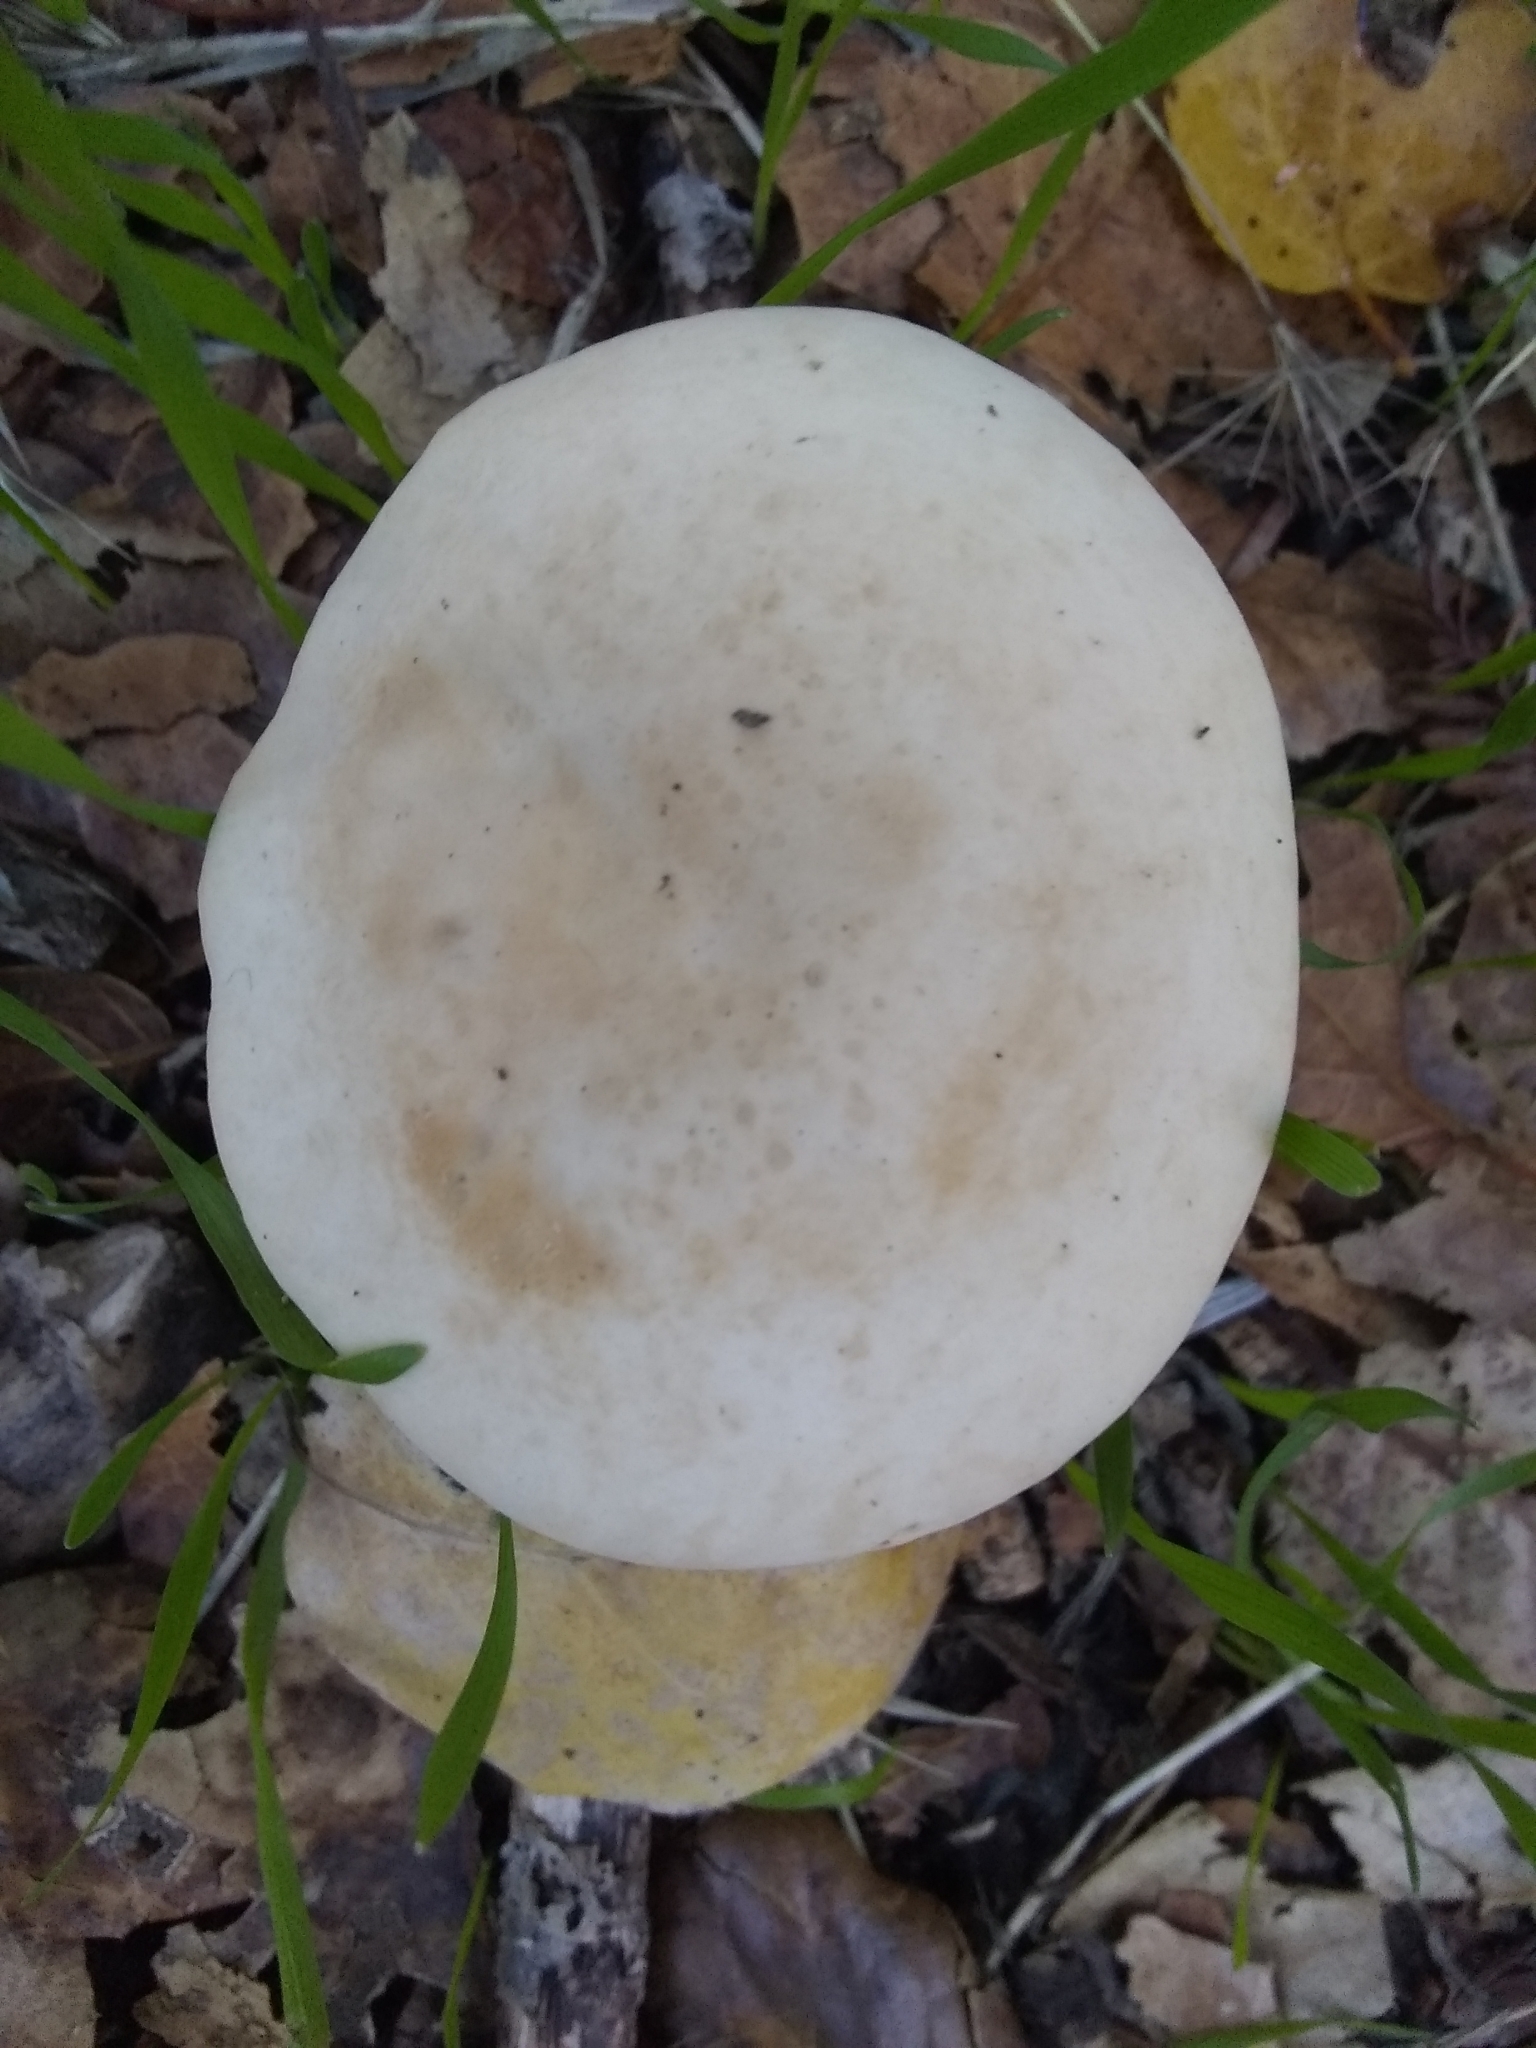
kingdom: Fungi
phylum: Basidiomycota
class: Agaricomycetes
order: Agaricales
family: Strophariaceae
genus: Agrocybe
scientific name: Agrocybe putaminum
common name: Mulch fieldcap
